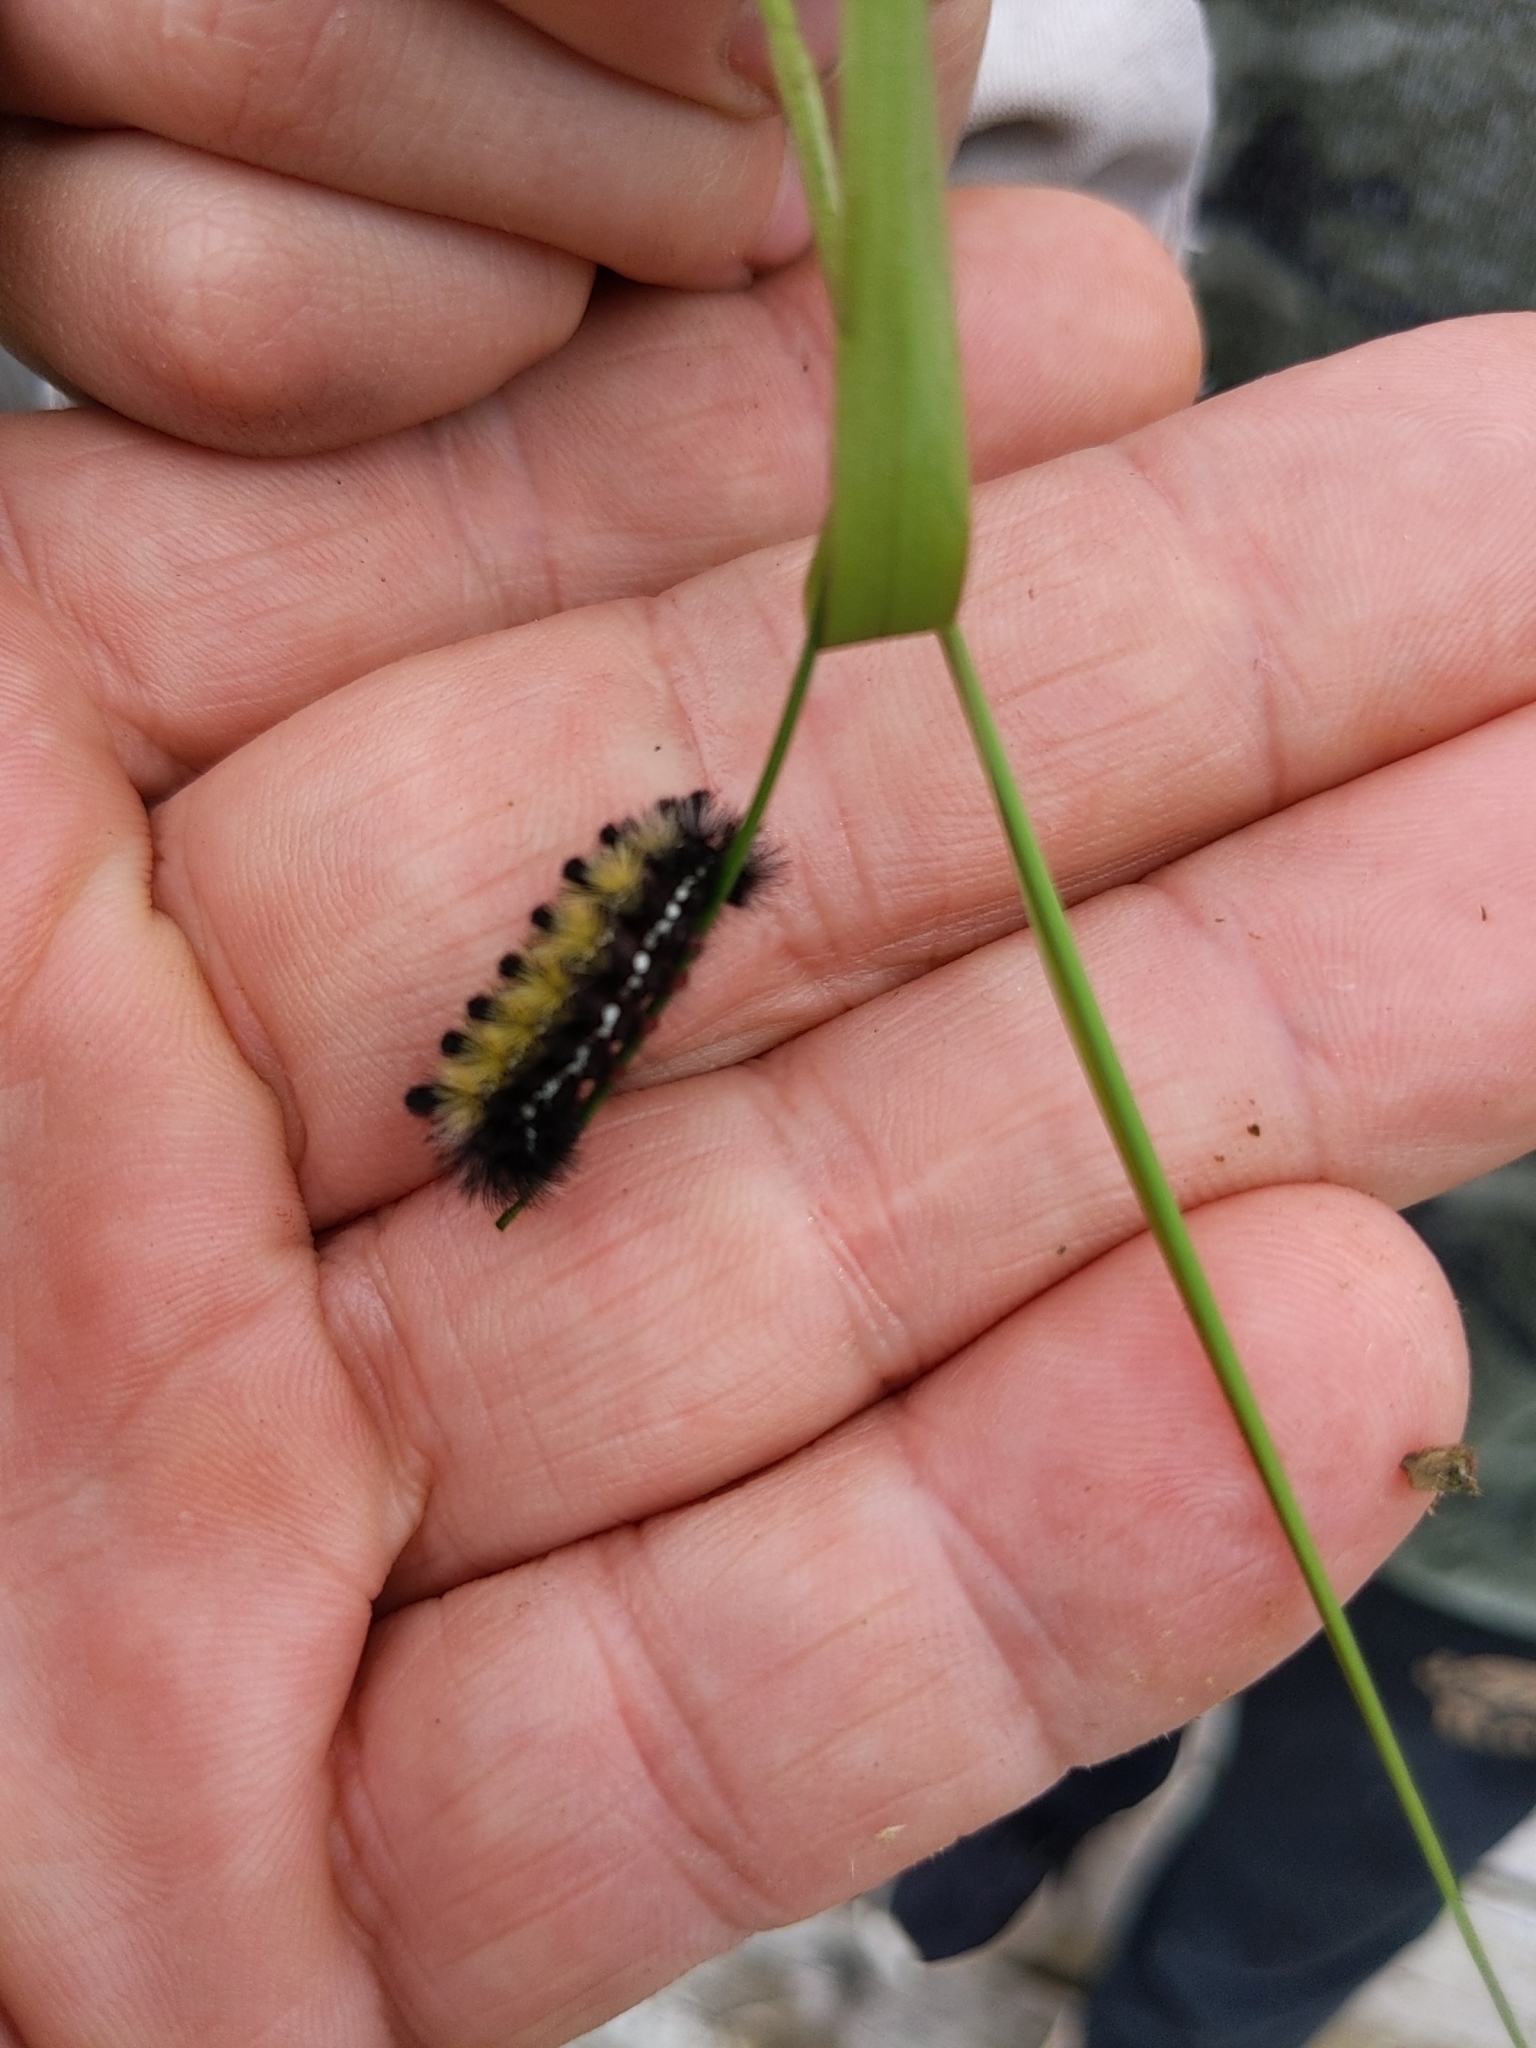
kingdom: Animalia
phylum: Arthropoda
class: Insecta
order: Lepidoptera
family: Erebidae
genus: Ctenucha
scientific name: Ctenucha virginica
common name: Virginia ctenucha moth
